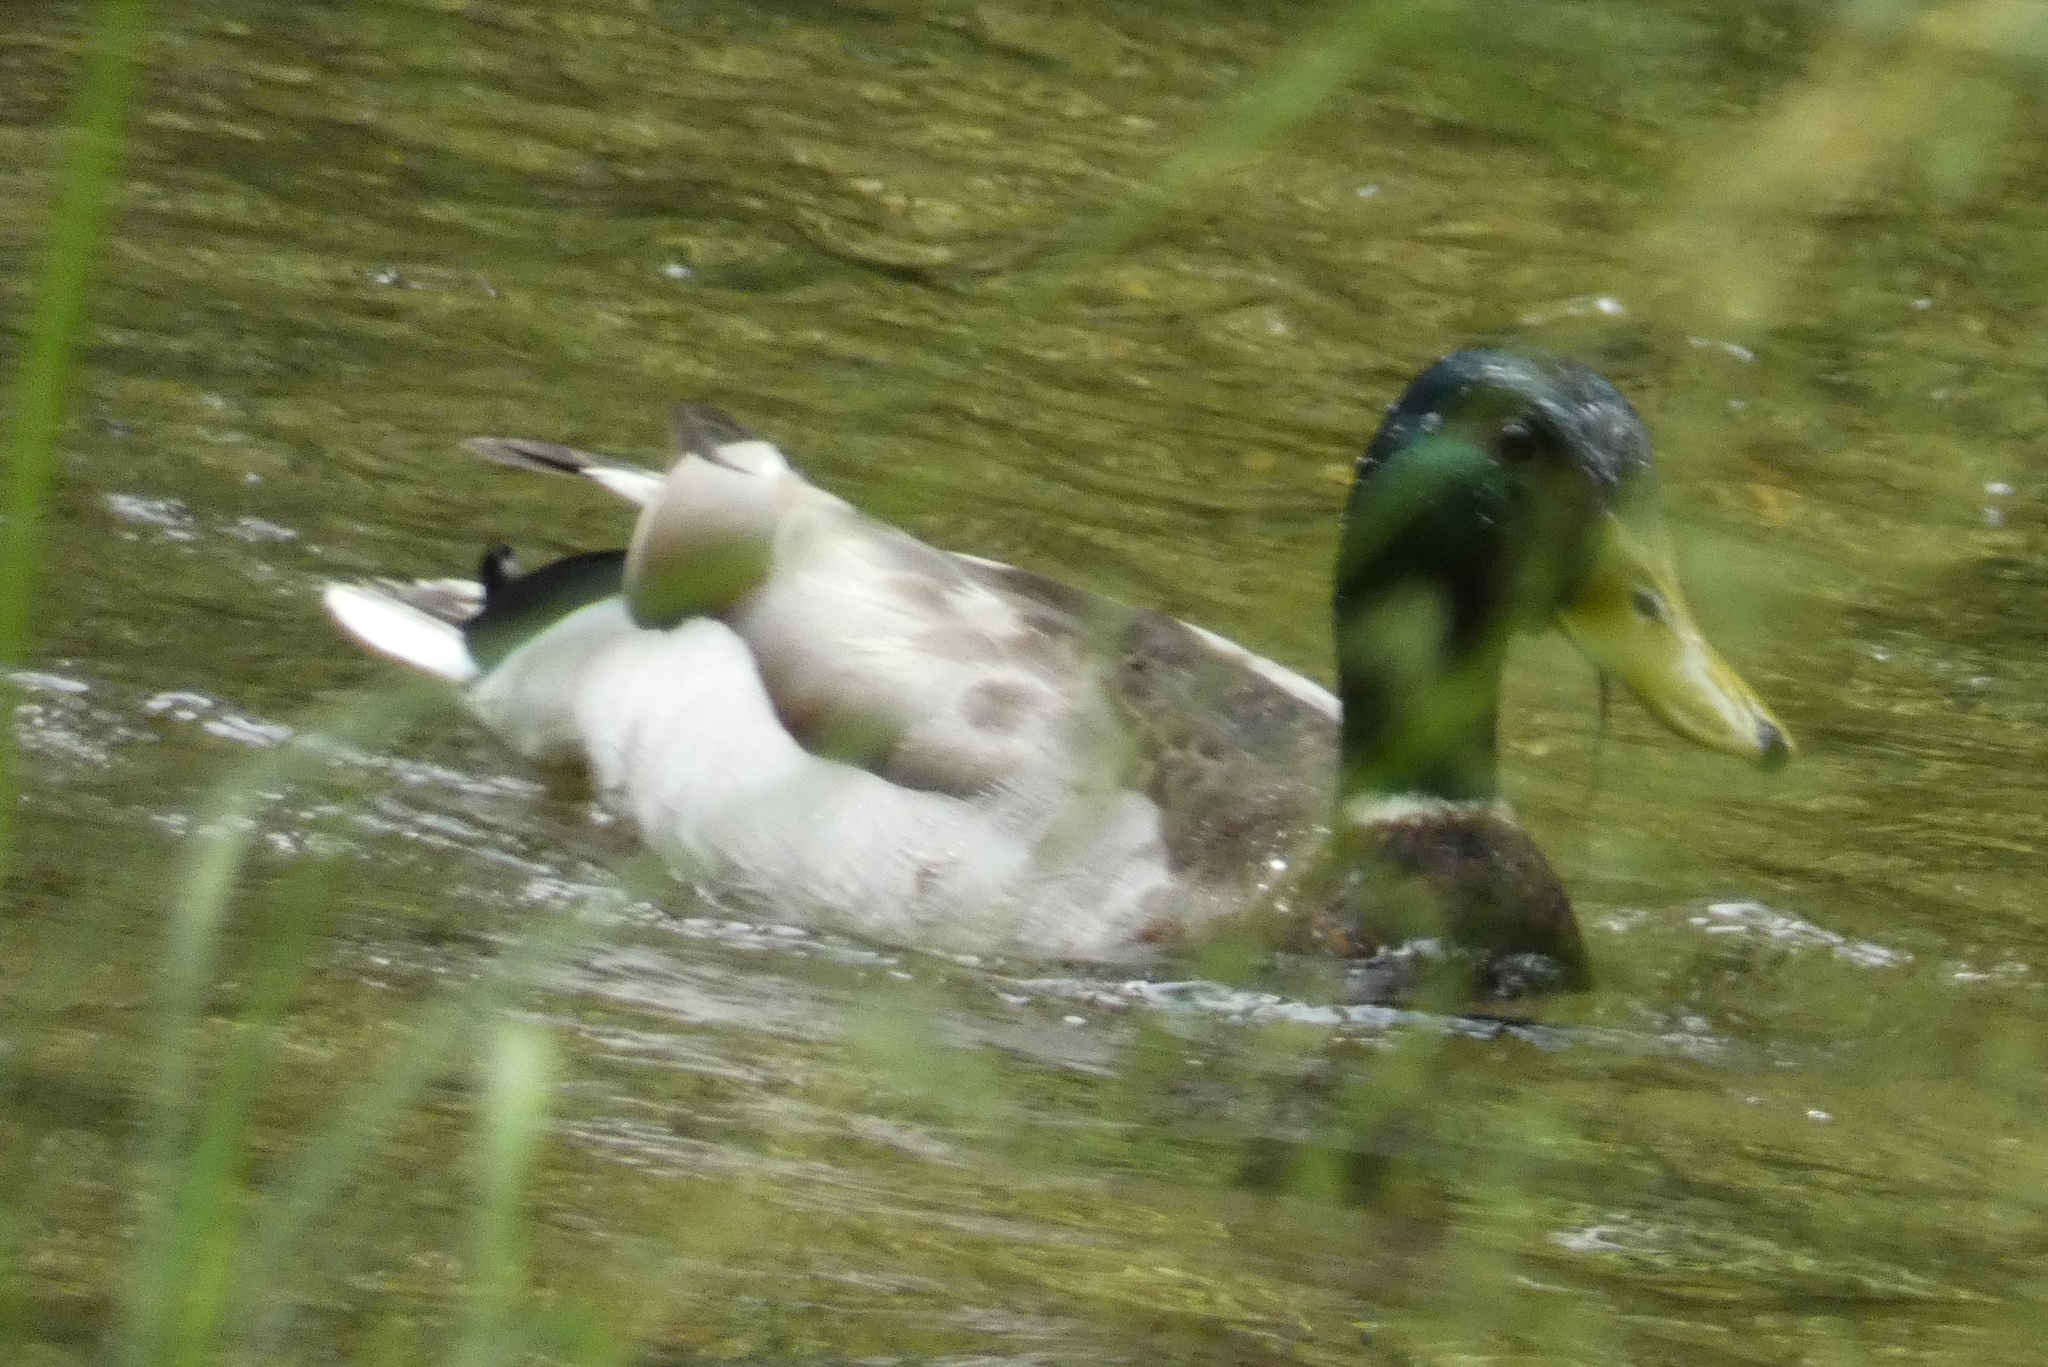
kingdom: Animalia
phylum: Chordata
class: Aves
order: Anseriformes
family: Anatidae
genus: Anas
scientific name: Anas platyrhynchos
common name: Mallard
